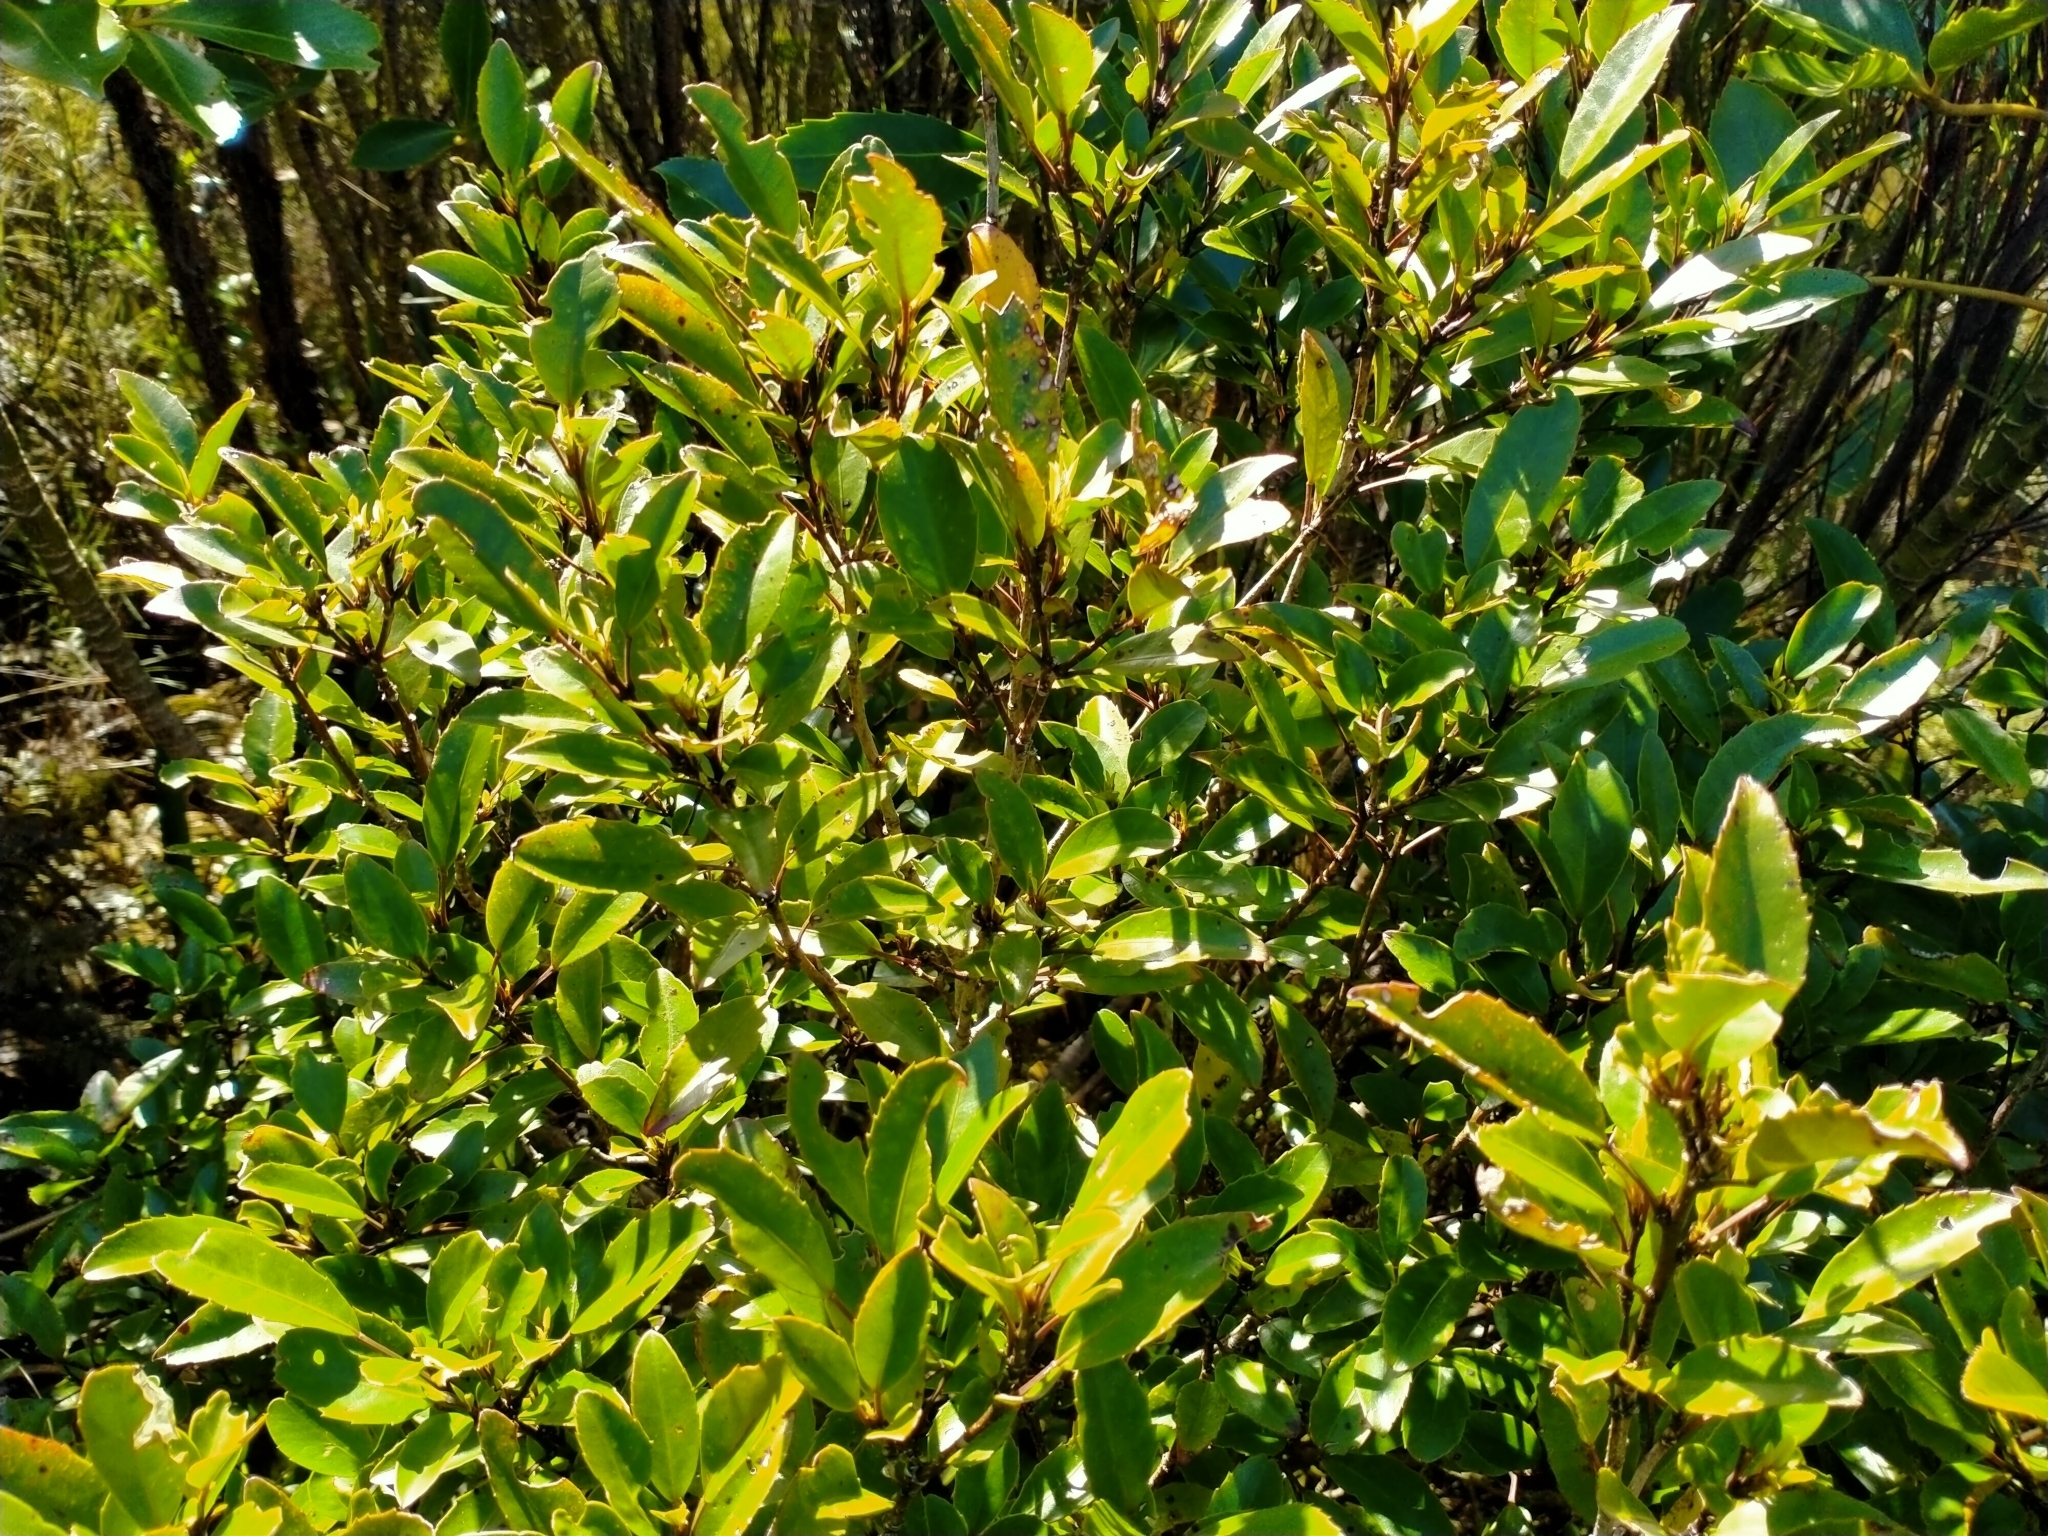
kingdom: Plantae
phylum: Tracheophyta
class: Magnoliopsida
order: Apiales
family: Araliaceae
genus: Raukaua
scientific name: Raukaua simplex
